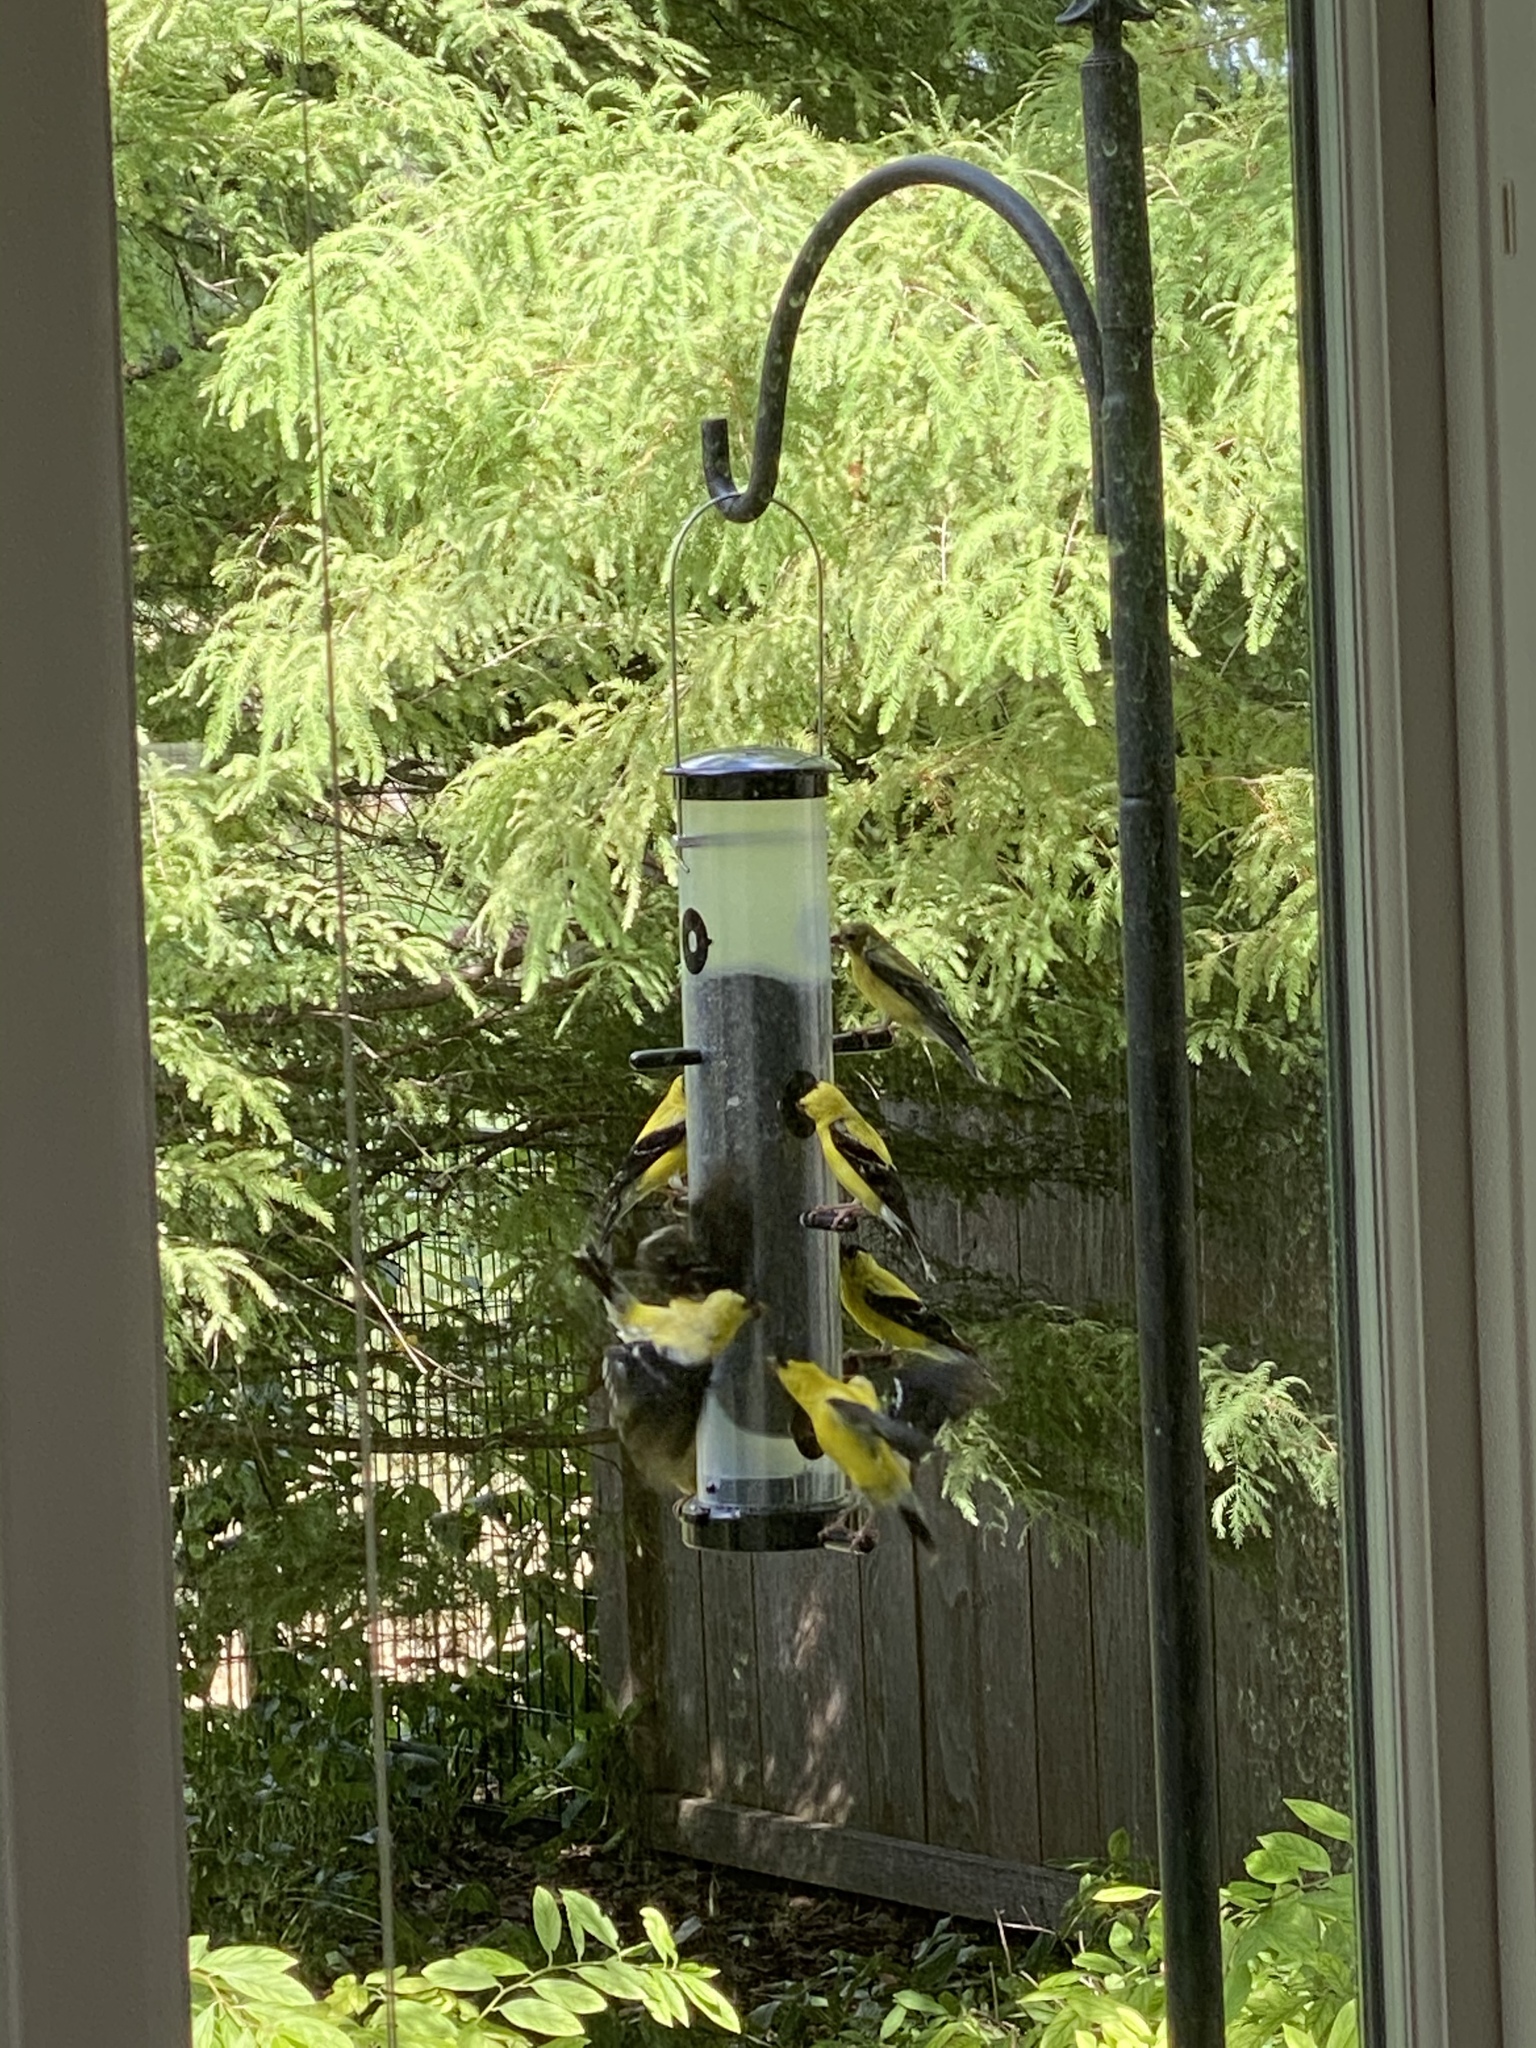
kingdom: Animalia
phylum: Chordata
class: Aves
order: Passeriformes
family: Fringillidae
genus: Spinus
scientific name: Spinus tristis
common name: American goldfinch
